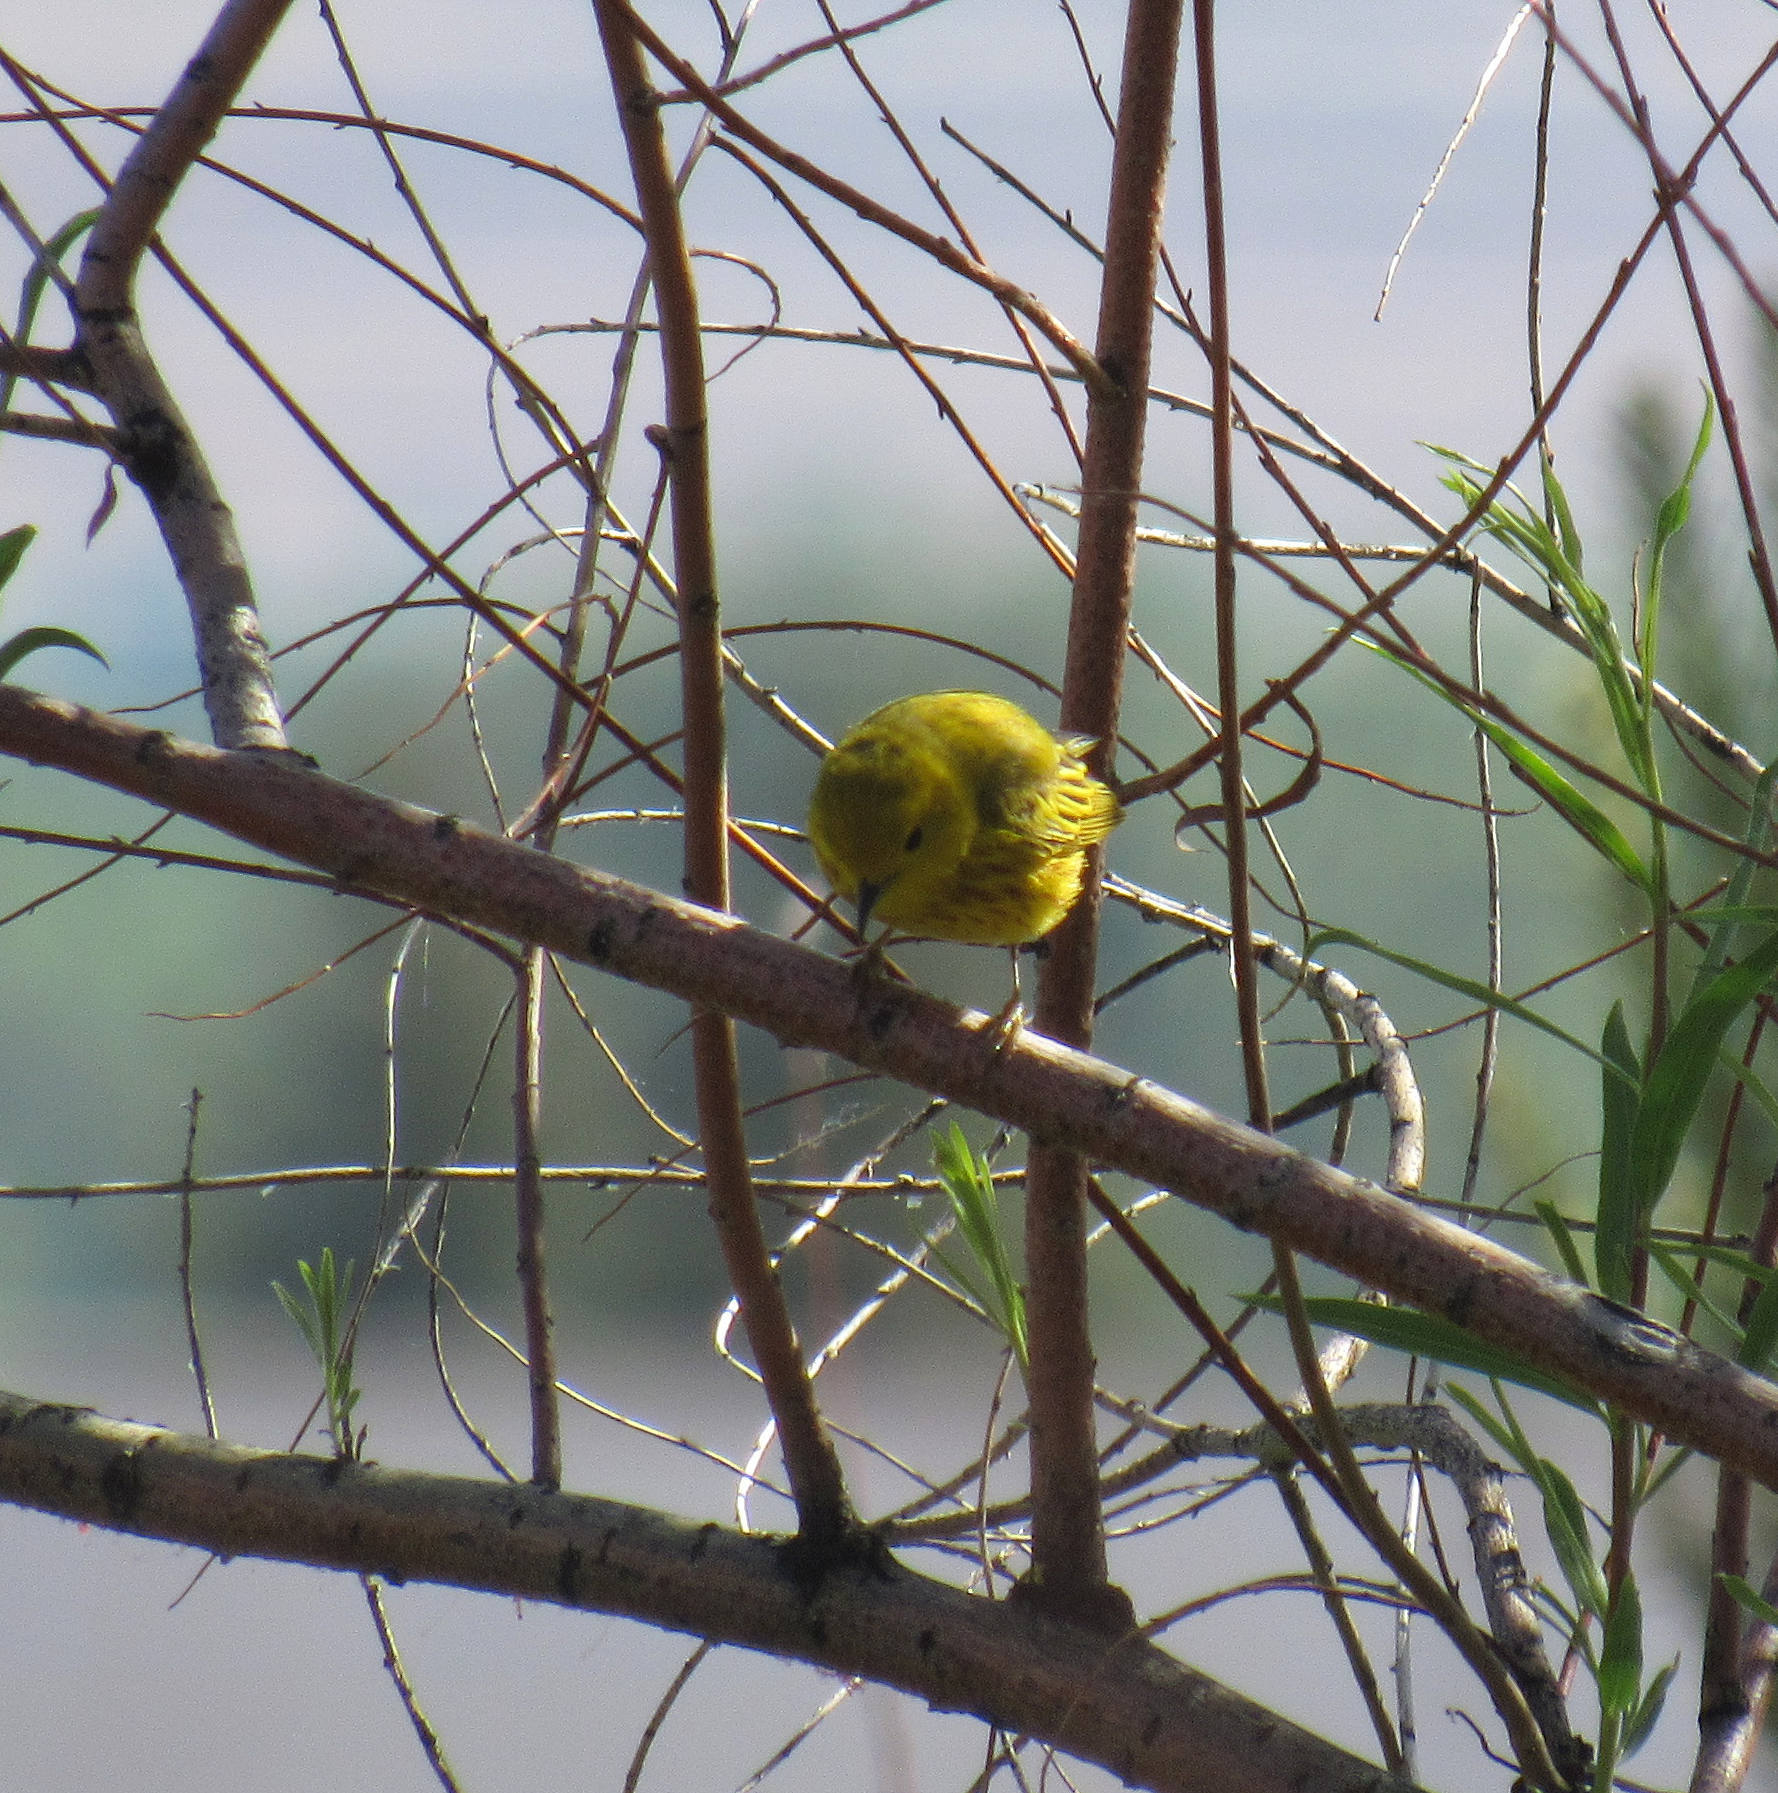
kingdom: Animalia
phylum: Chordata
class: Aves
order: Passeriformes
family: Parulidae
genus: Setophaga
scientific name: Setophaga petechia
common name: Yellow warbler
